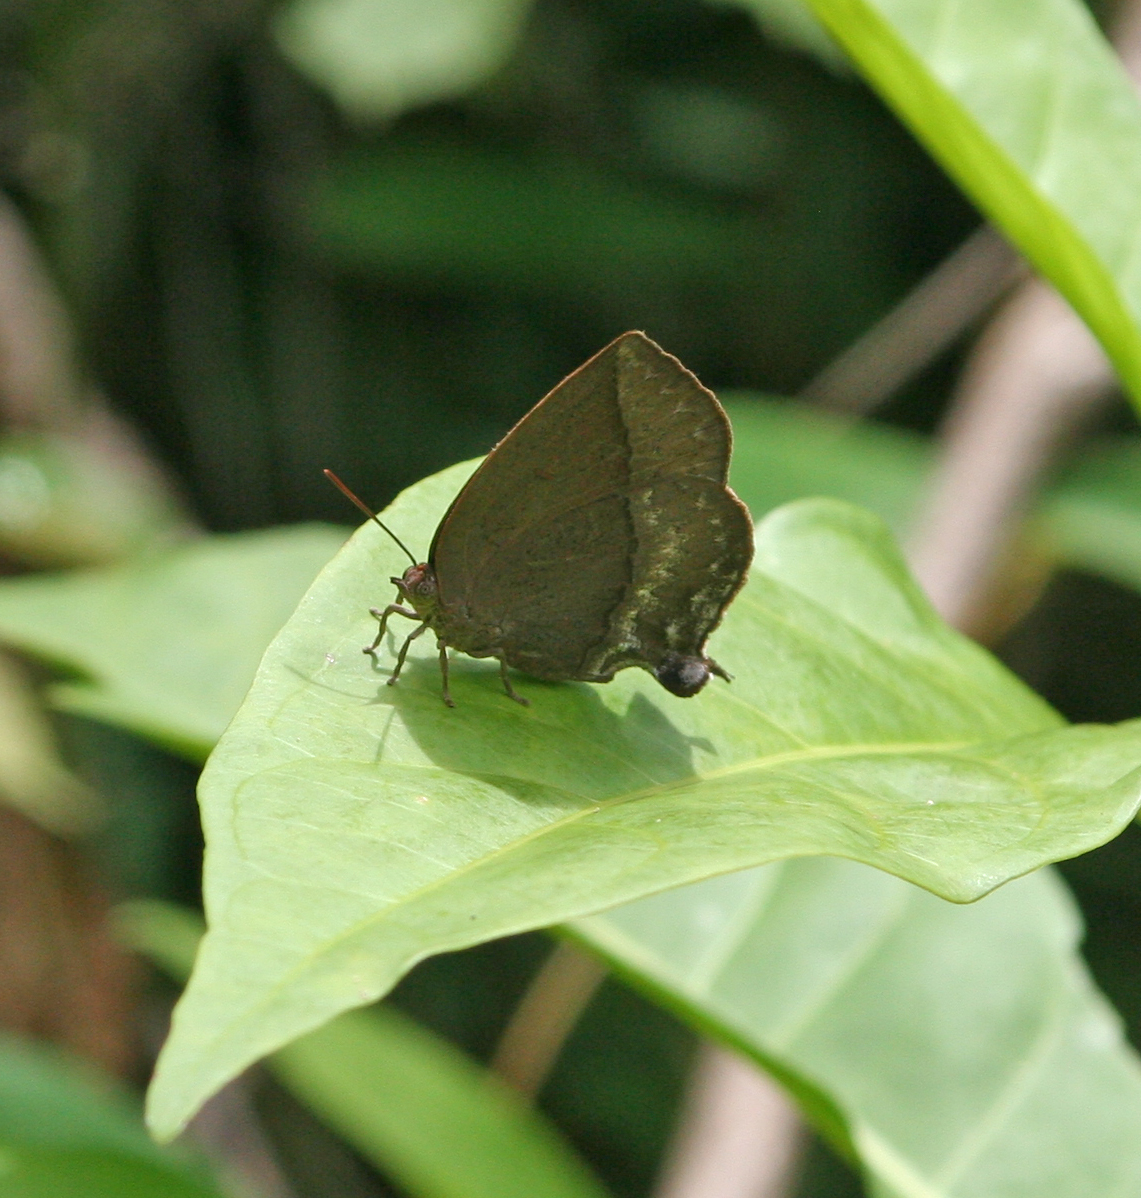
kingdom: Animalia
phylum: Arthropoda
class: Insecta
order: Lepidoptera
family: Lycaenidae
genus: Amblypodia
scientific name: Amblypodia anita
